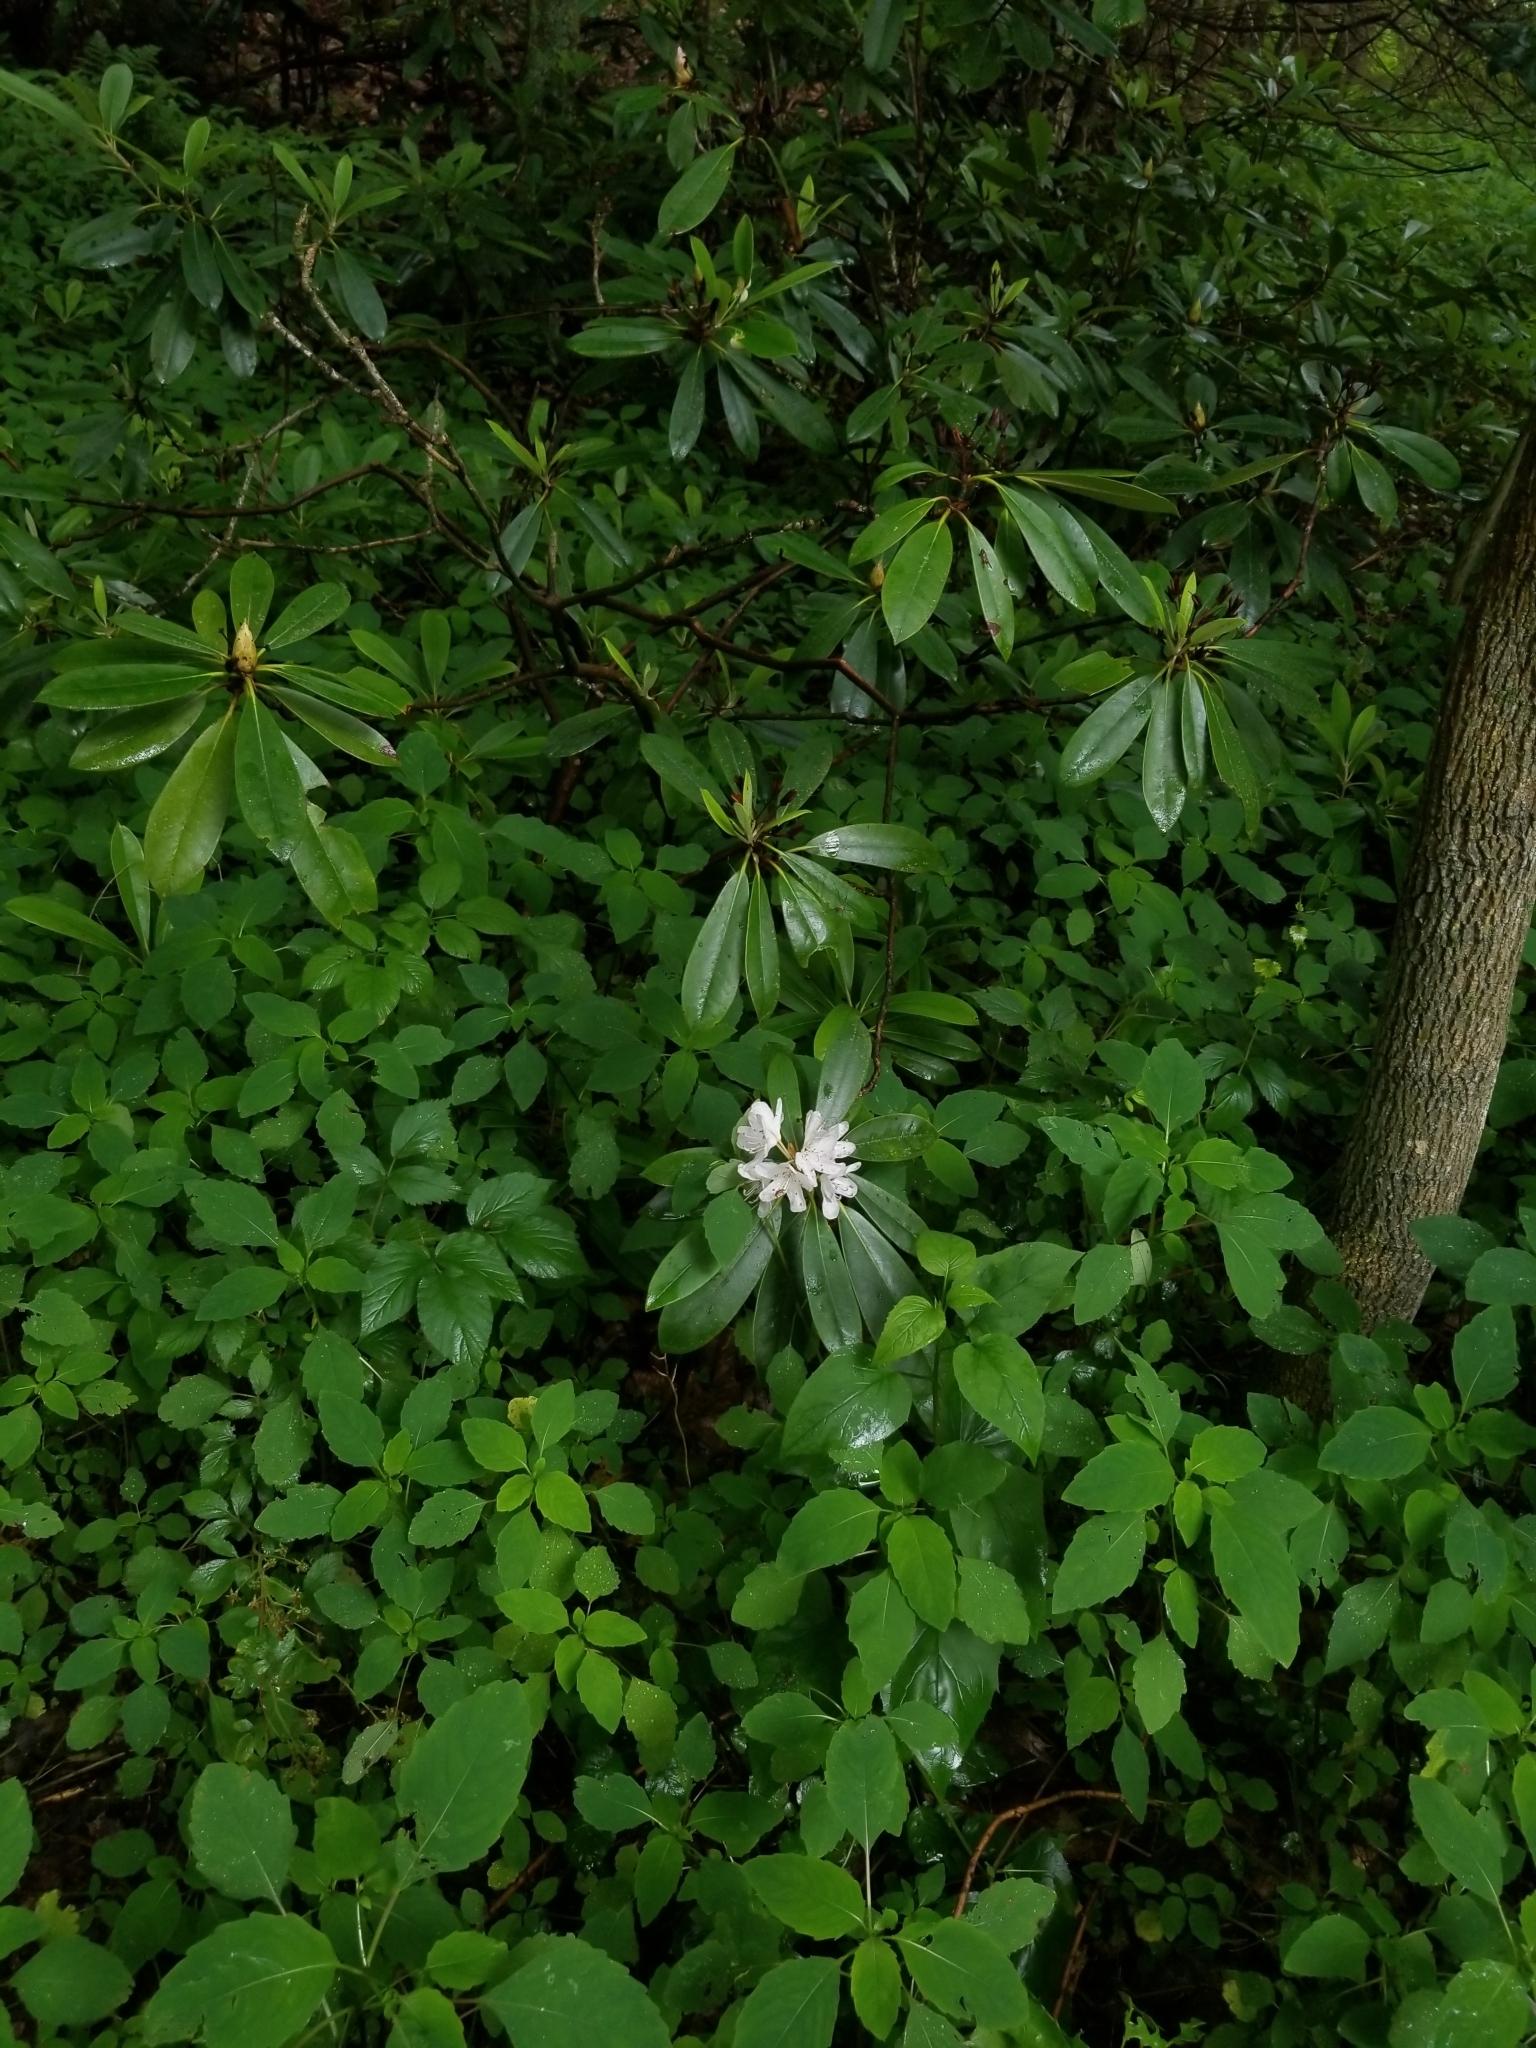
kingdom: Plantae
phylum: Tracheophyta
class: Magnoliopsida
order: Ericales
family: Ericaceae
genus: Rhododendron
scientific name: Rhododendron maximum
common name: Great rhododendron
